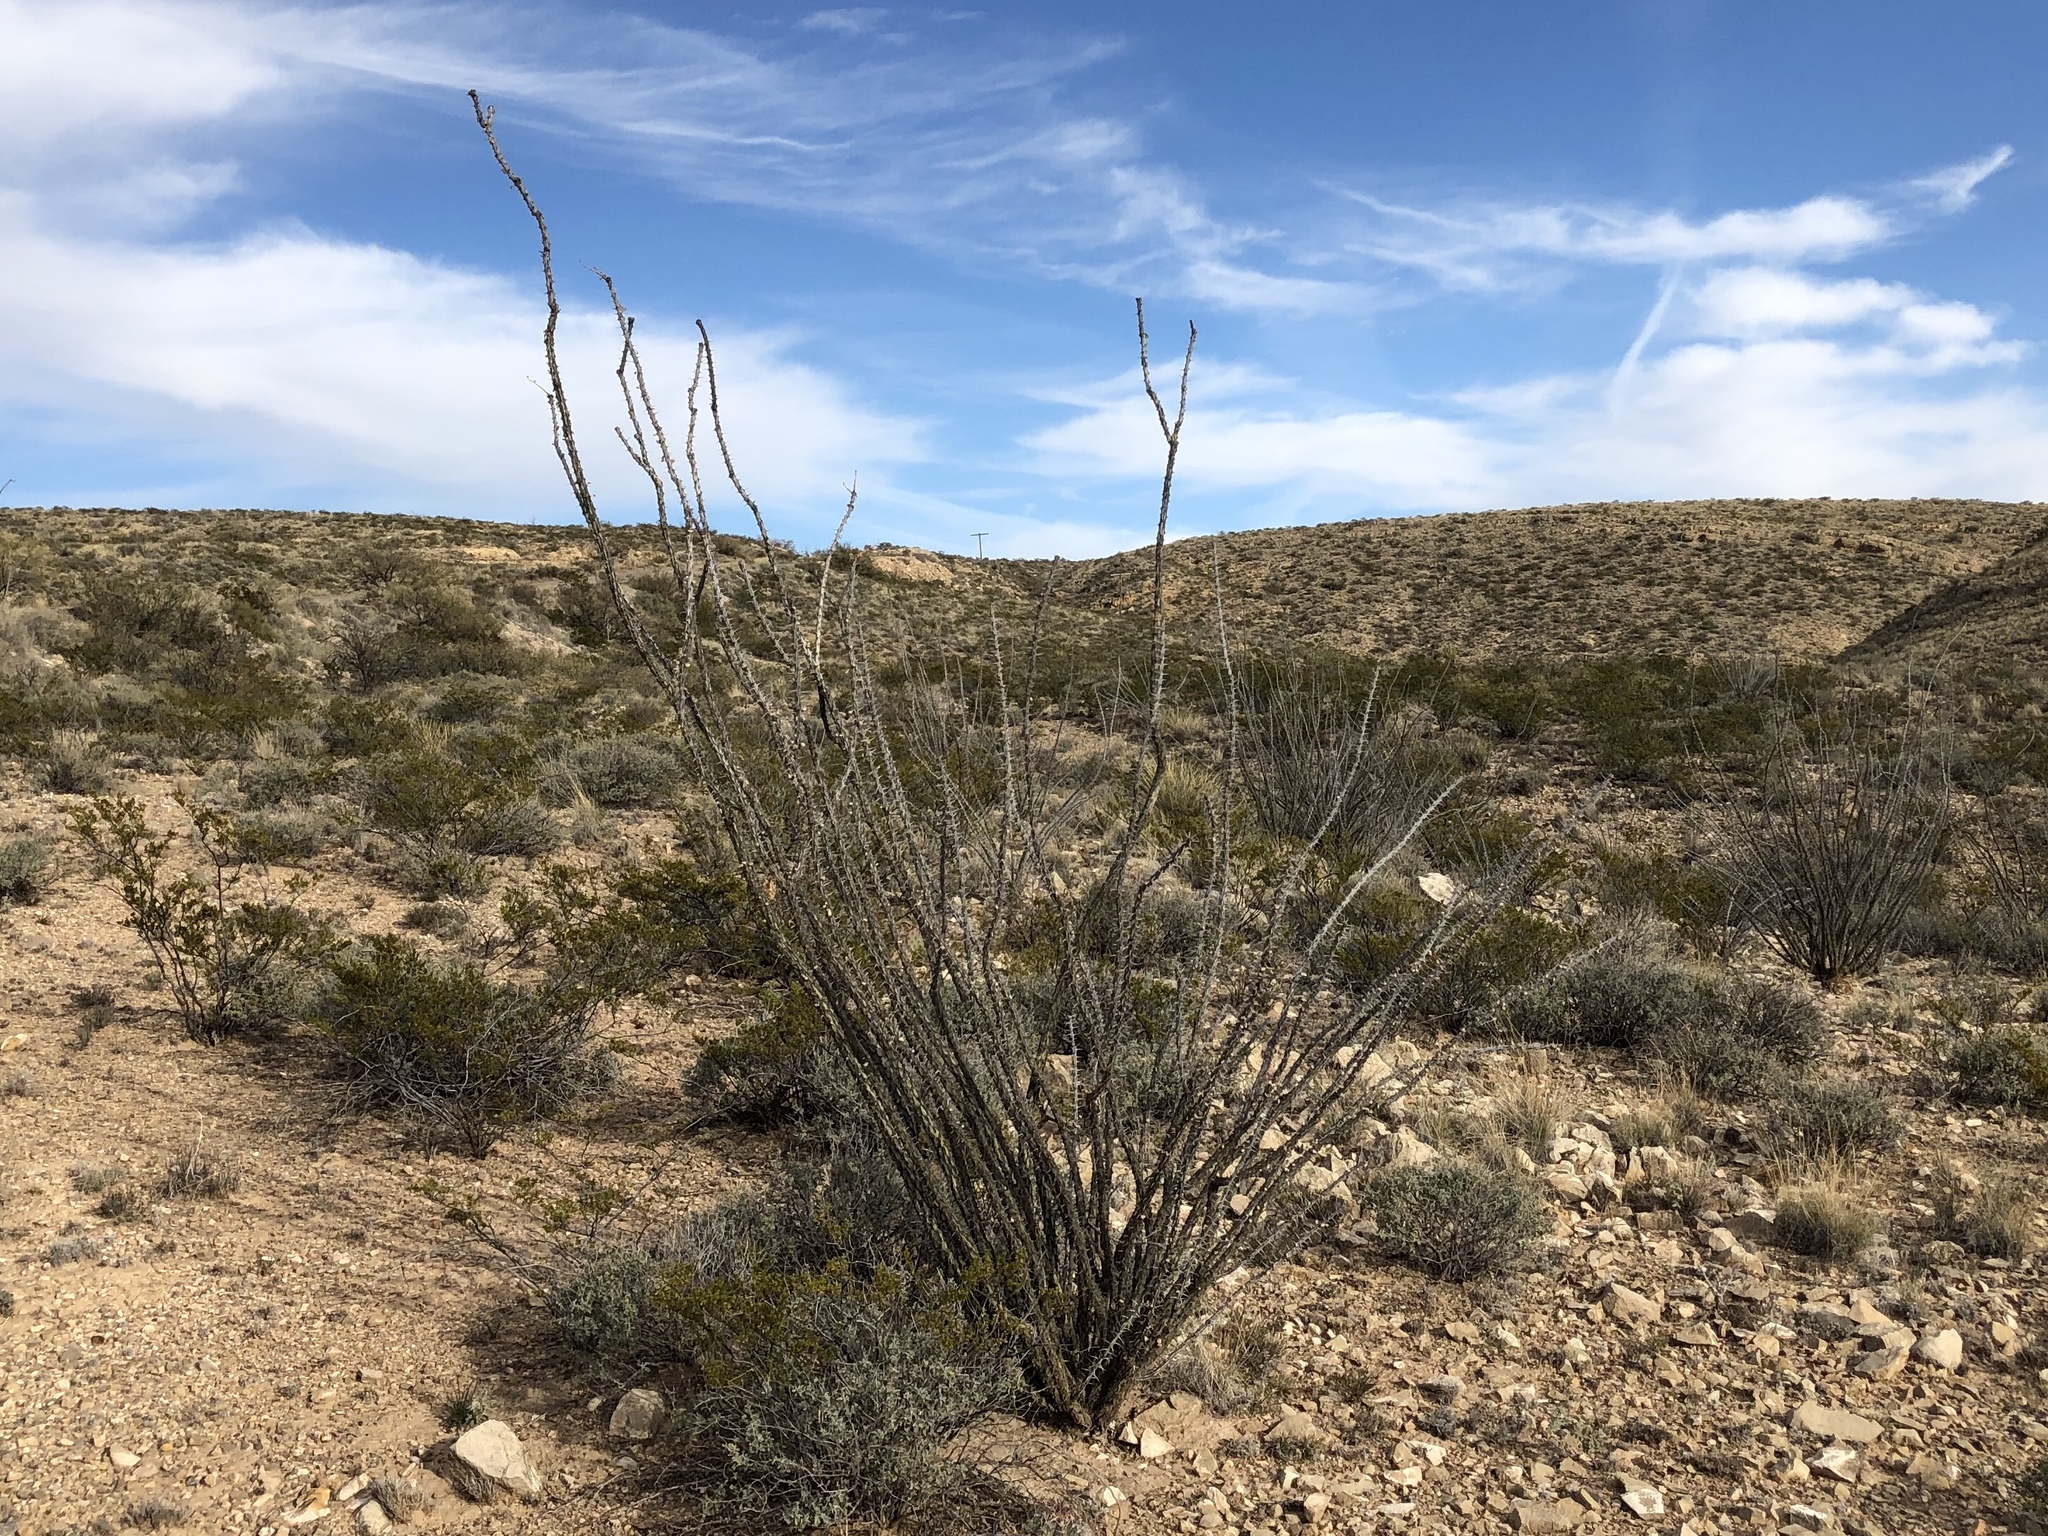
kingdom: Plantae
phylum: Tracheophyta
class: Magnoliopsida
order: Ericales
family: Fouquieriaceae
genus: Fouquieria
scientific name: Fouquieria splendens
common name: Vine-cactus
